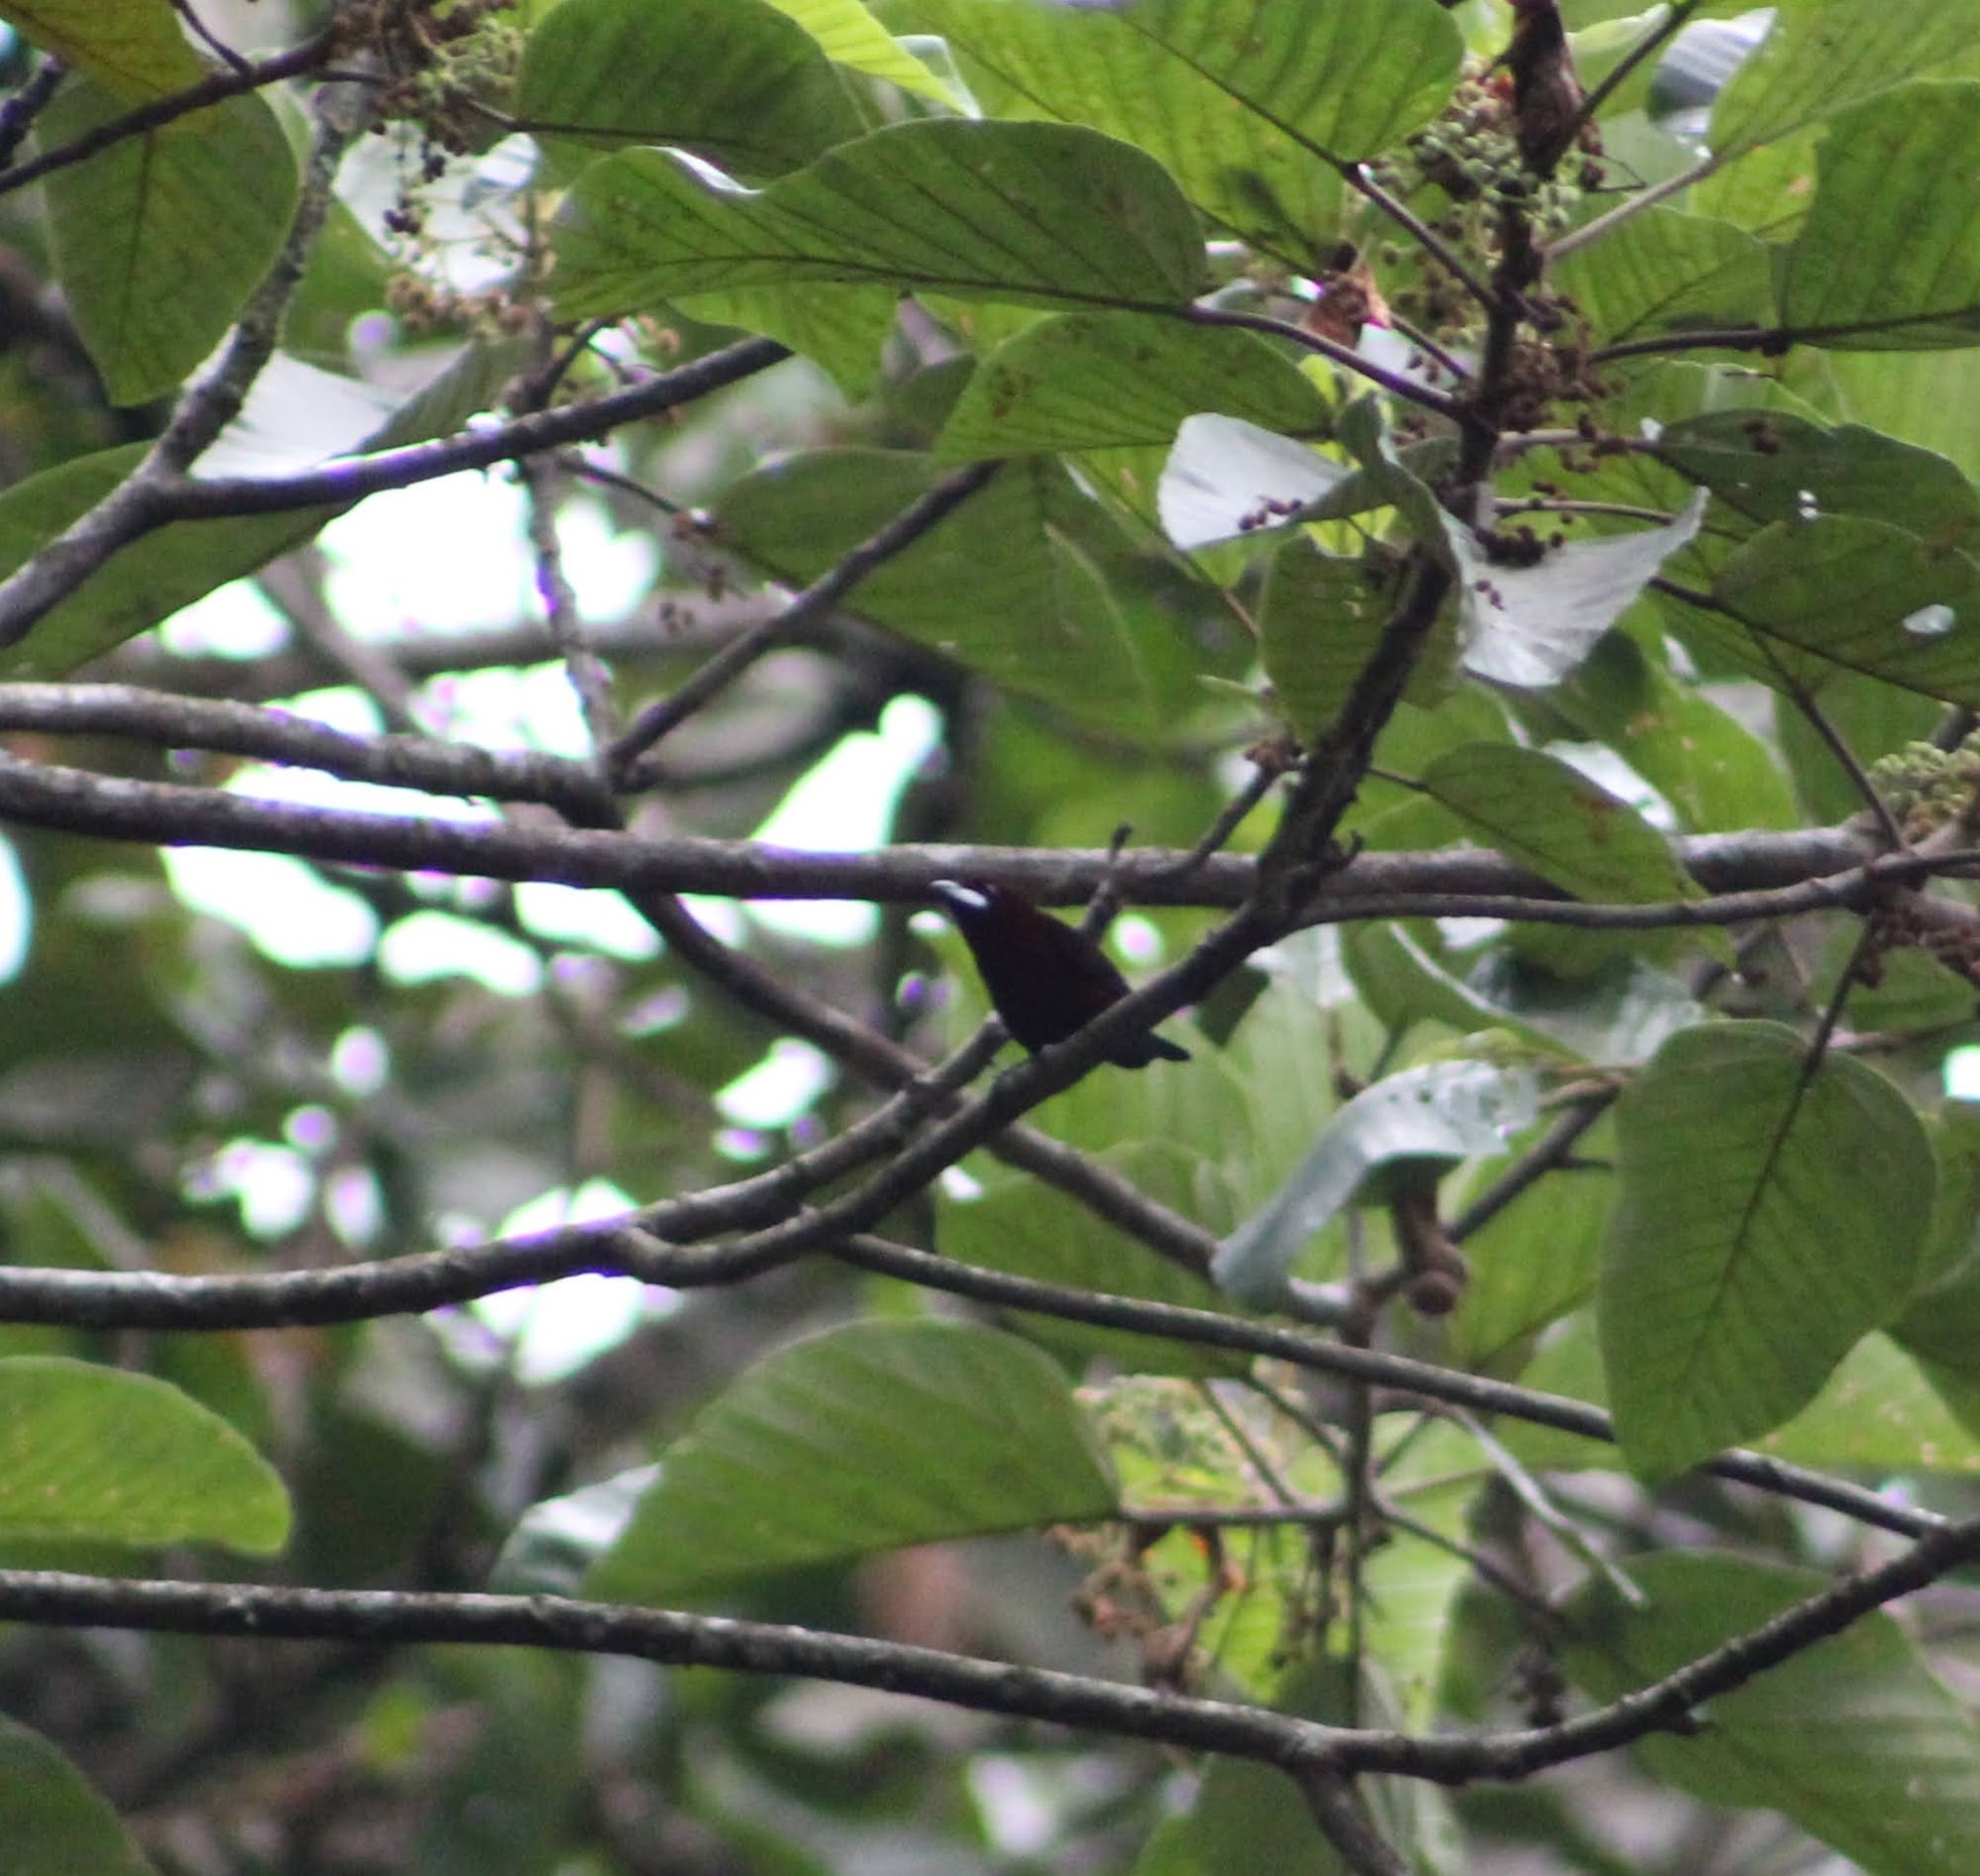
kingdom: Animalia
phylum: Chordata
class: Aves
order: Passeriformes
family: Thraupidae
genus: Ramphocelus
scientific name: Ramphocelus carbo
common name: Silver-beaked tanager
